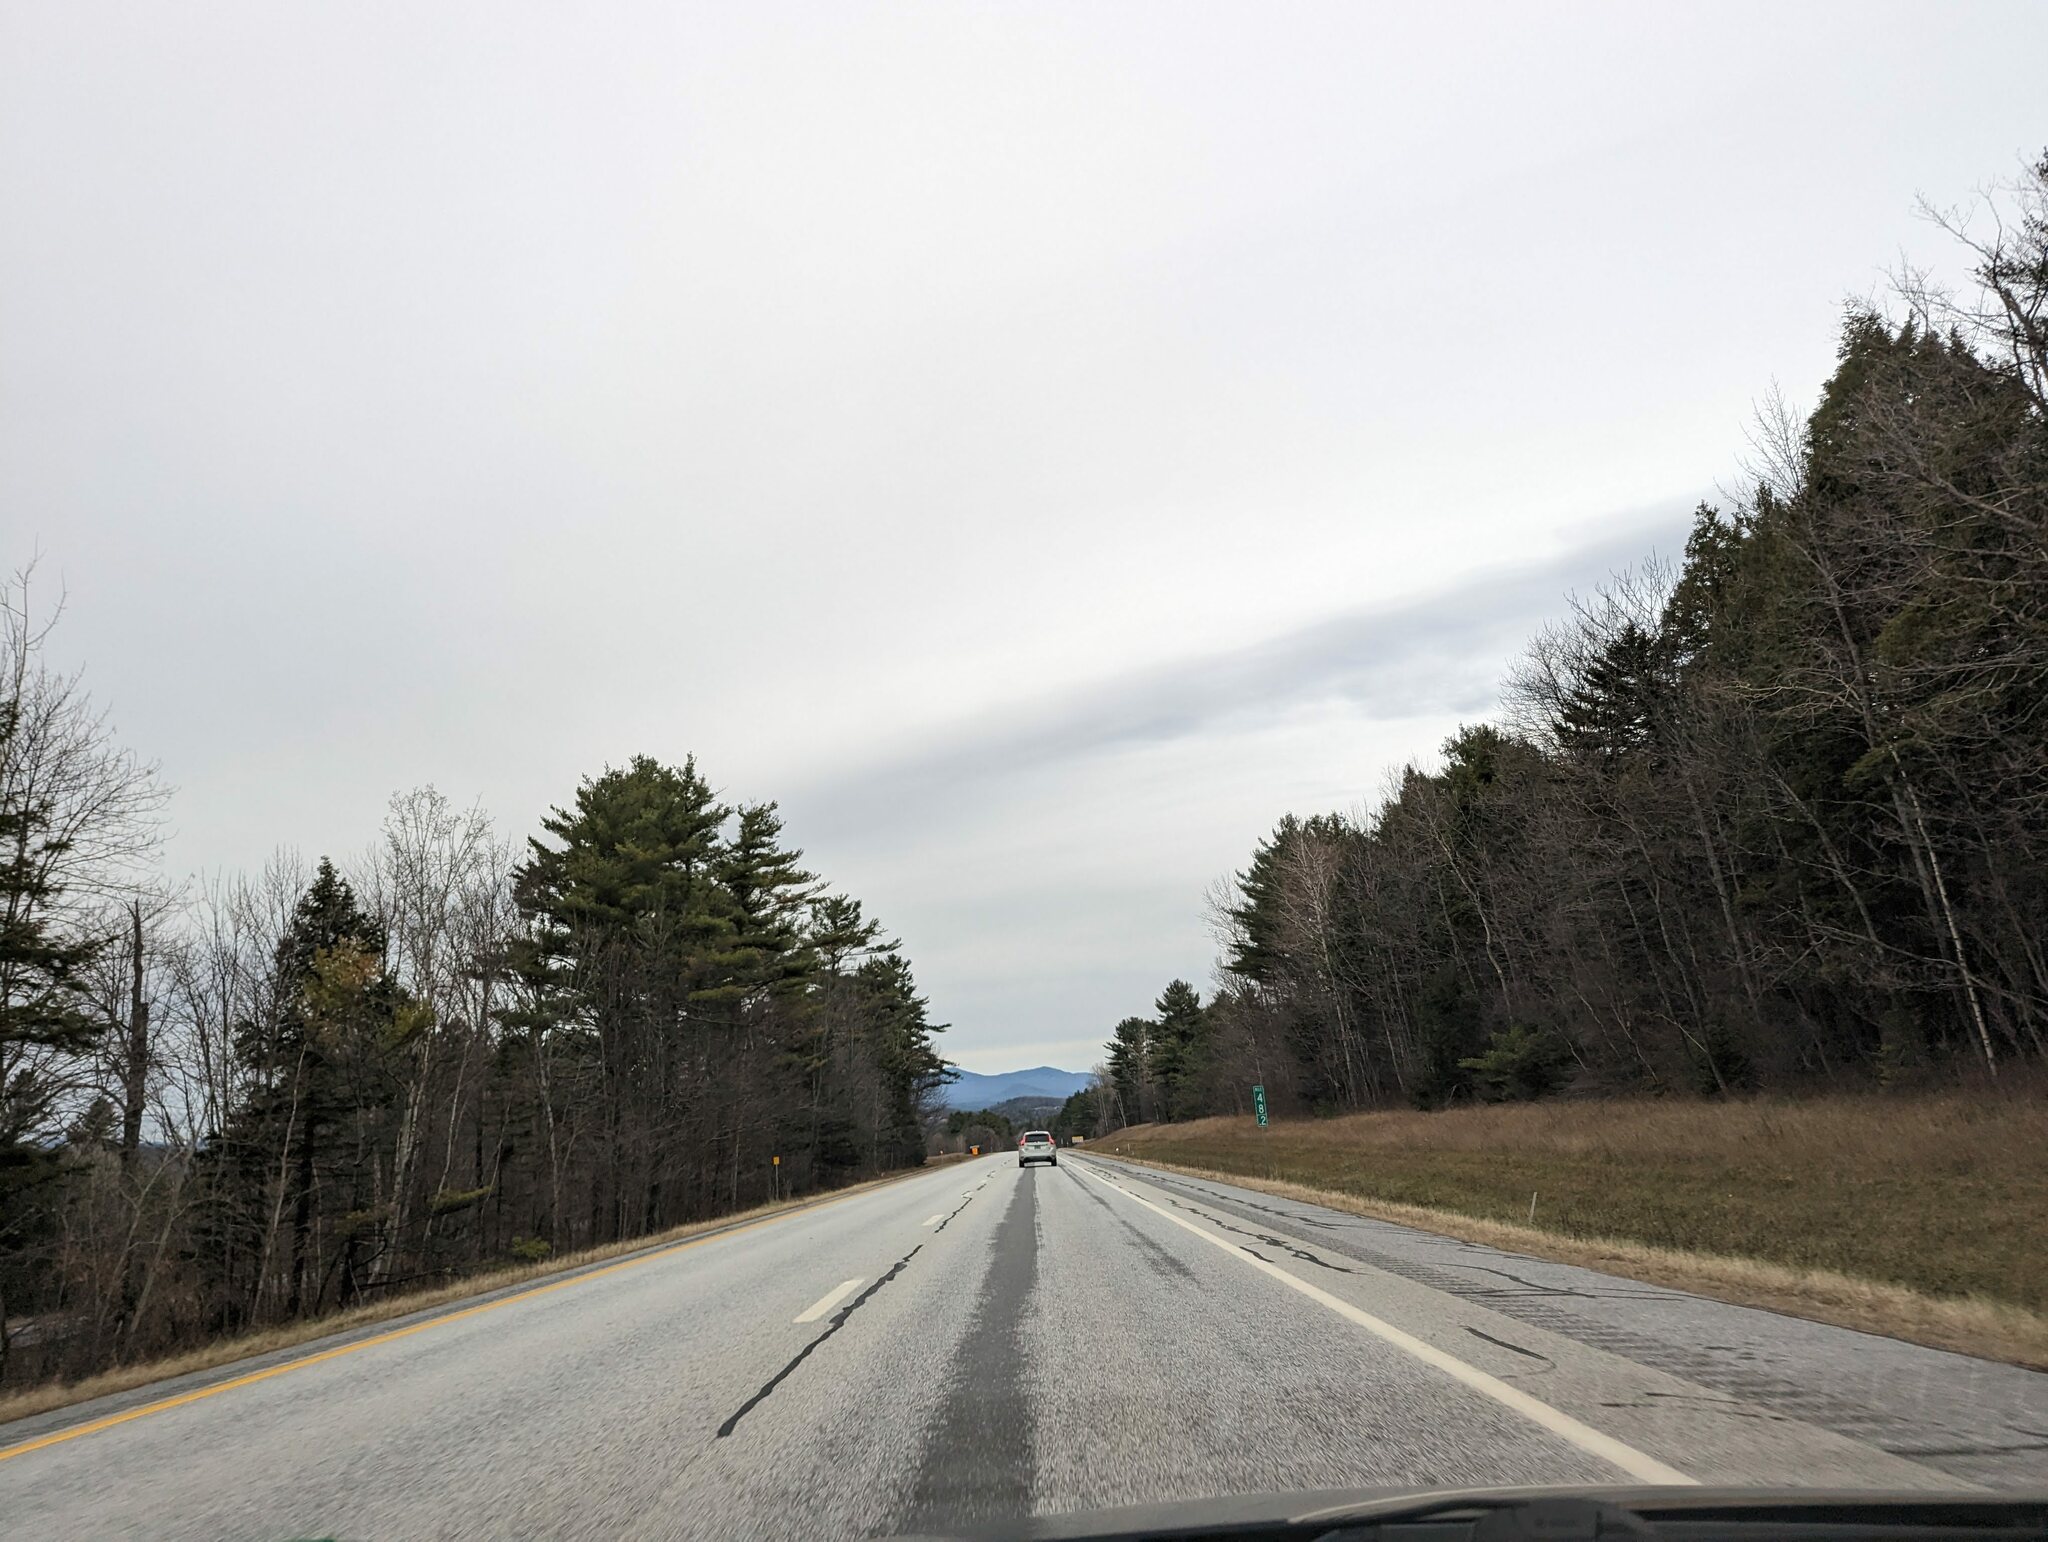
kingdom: Plantae
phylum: Tracheophyta
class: Pinopsida
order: Pinales
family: Pinaceae
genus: Pinus
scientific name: Pinus strobus
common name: Weymouth pine
